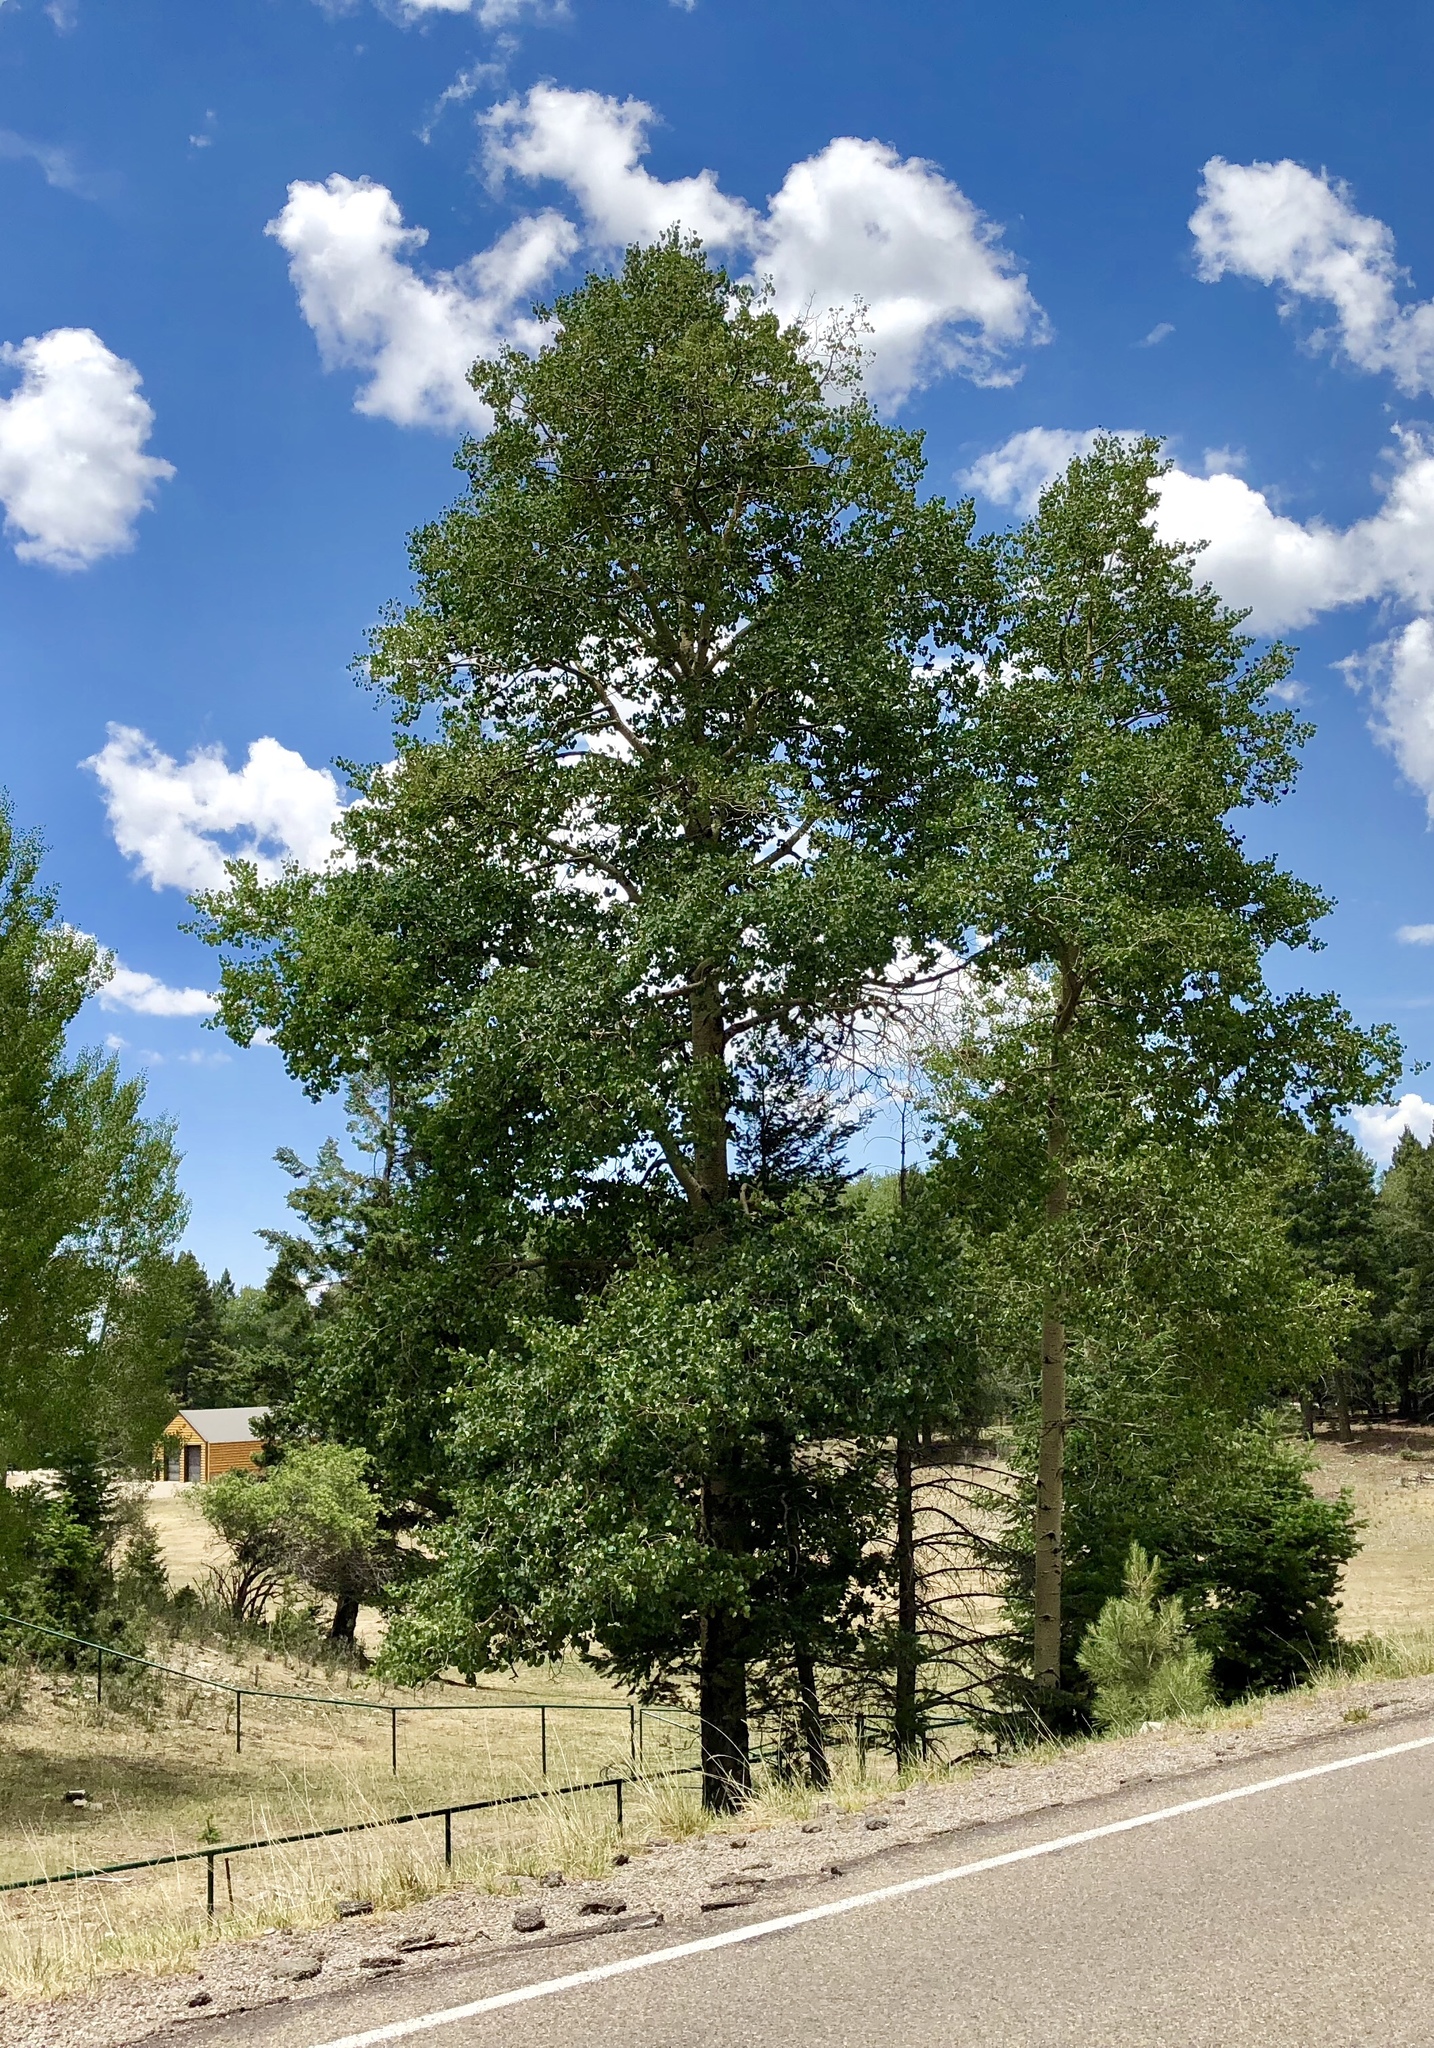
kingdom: Plantae
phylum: Tracheophyta
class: Magnoliopsida
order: Malpighiales
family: Salicaceae
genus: Populus
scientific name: Populus tremuloides
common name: Quaking aspen
